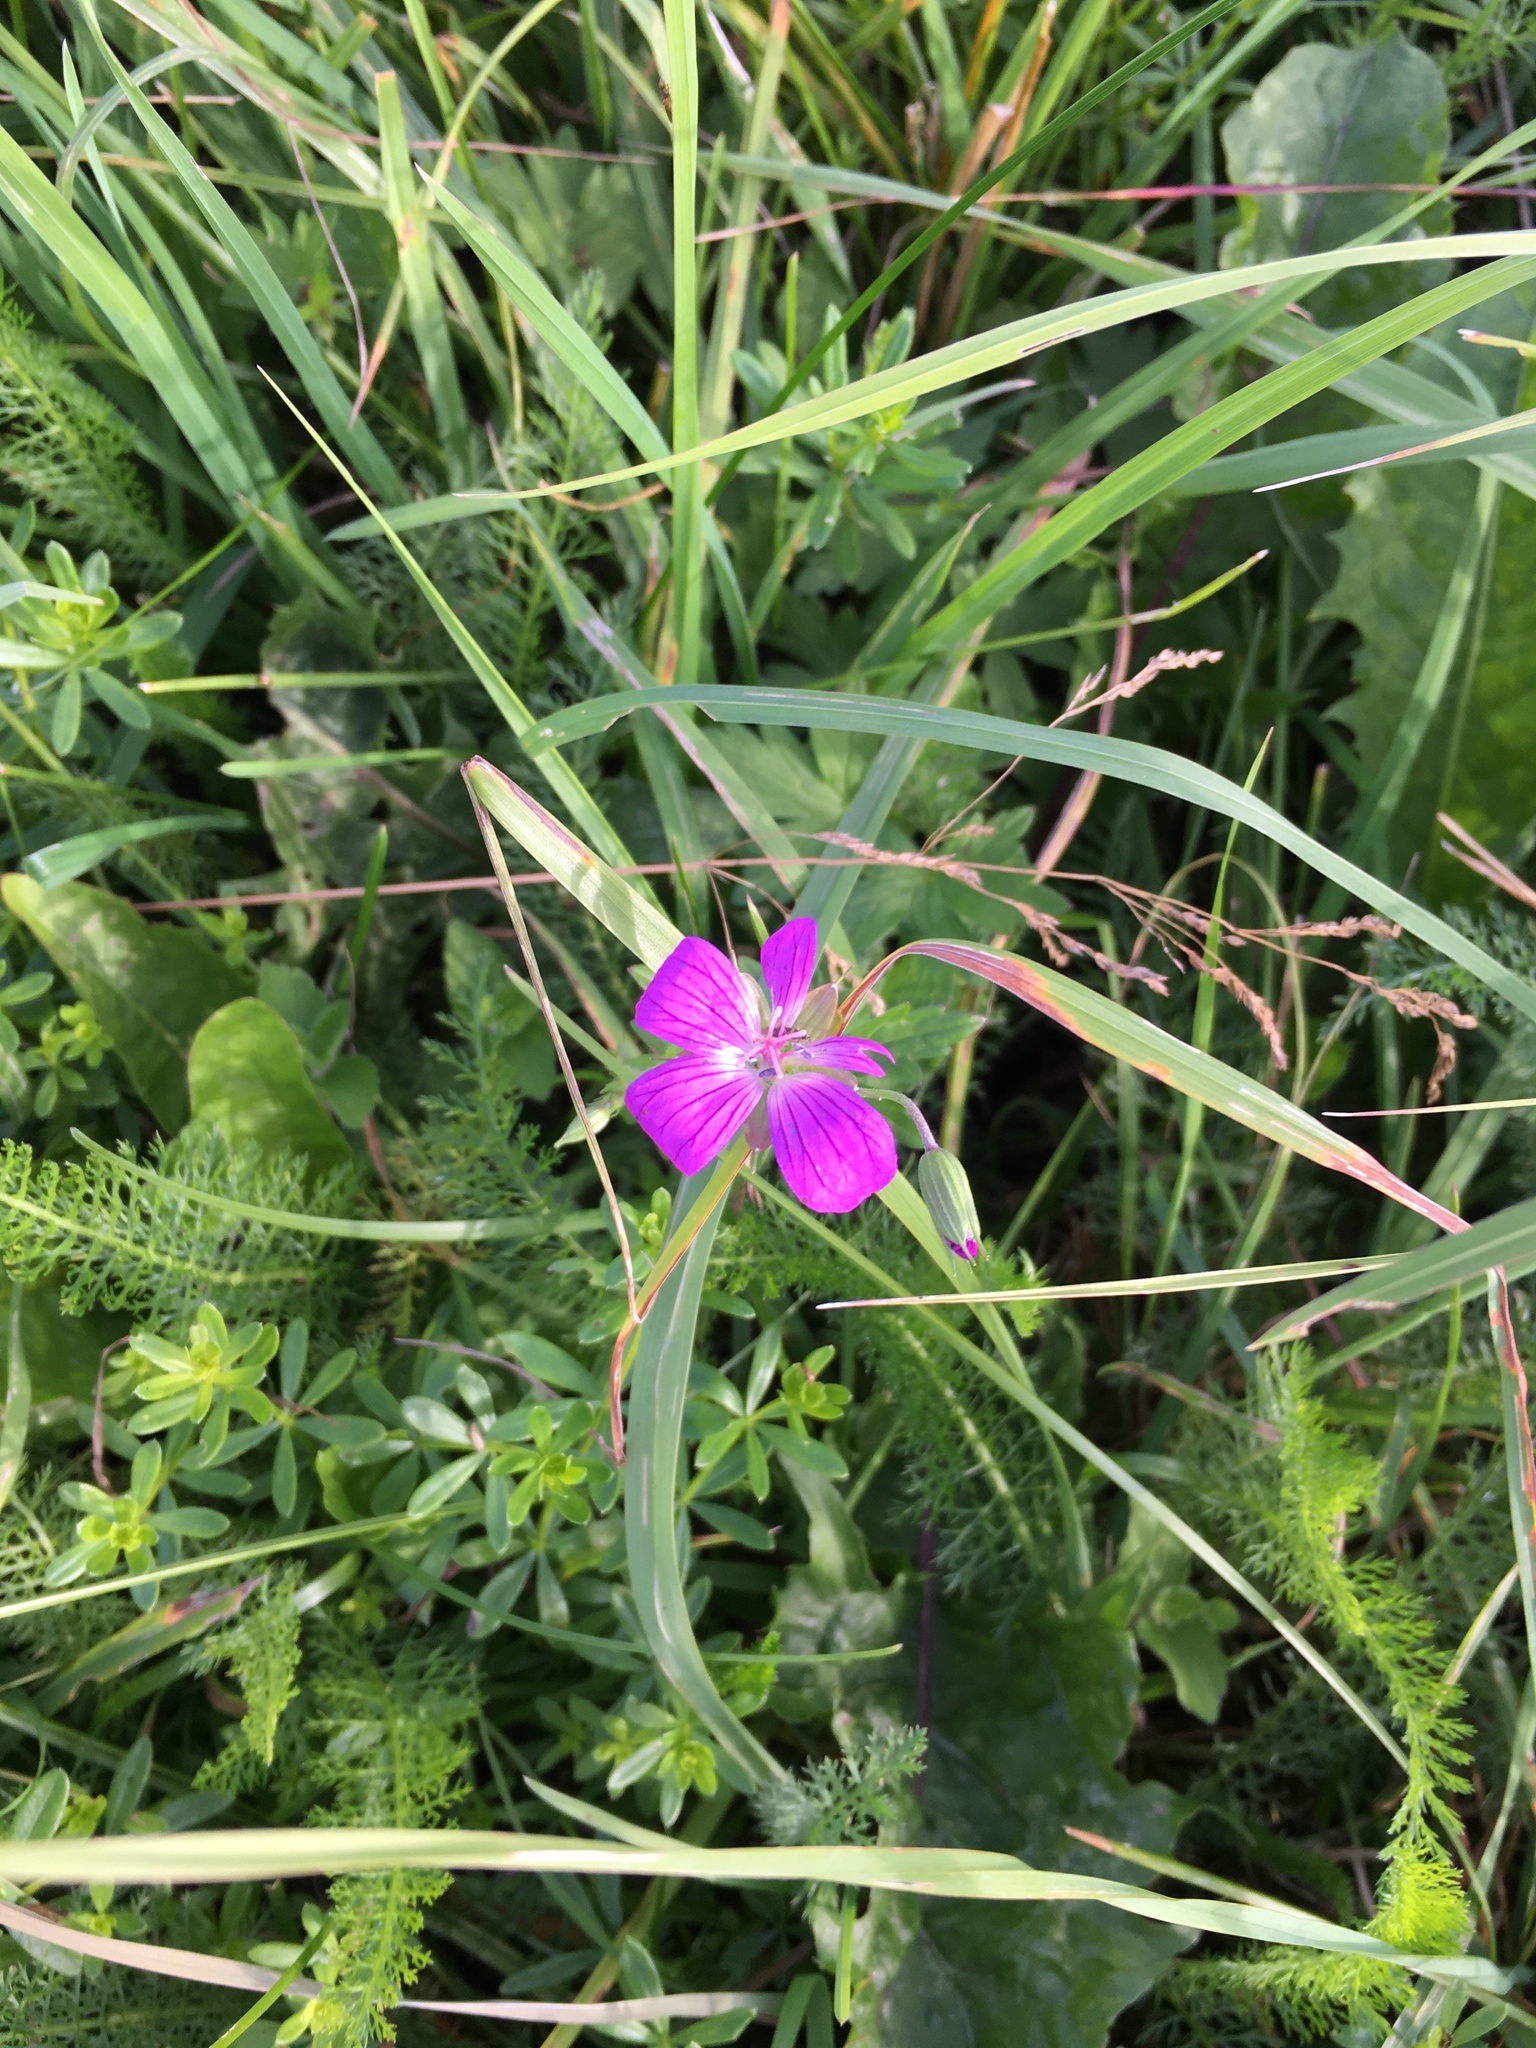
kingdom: Plantae
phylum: Tracheophyta
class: Magnoliopsida
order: Geraniales
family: Geraniaceae
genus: Geranium
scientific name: Geranium palustre
